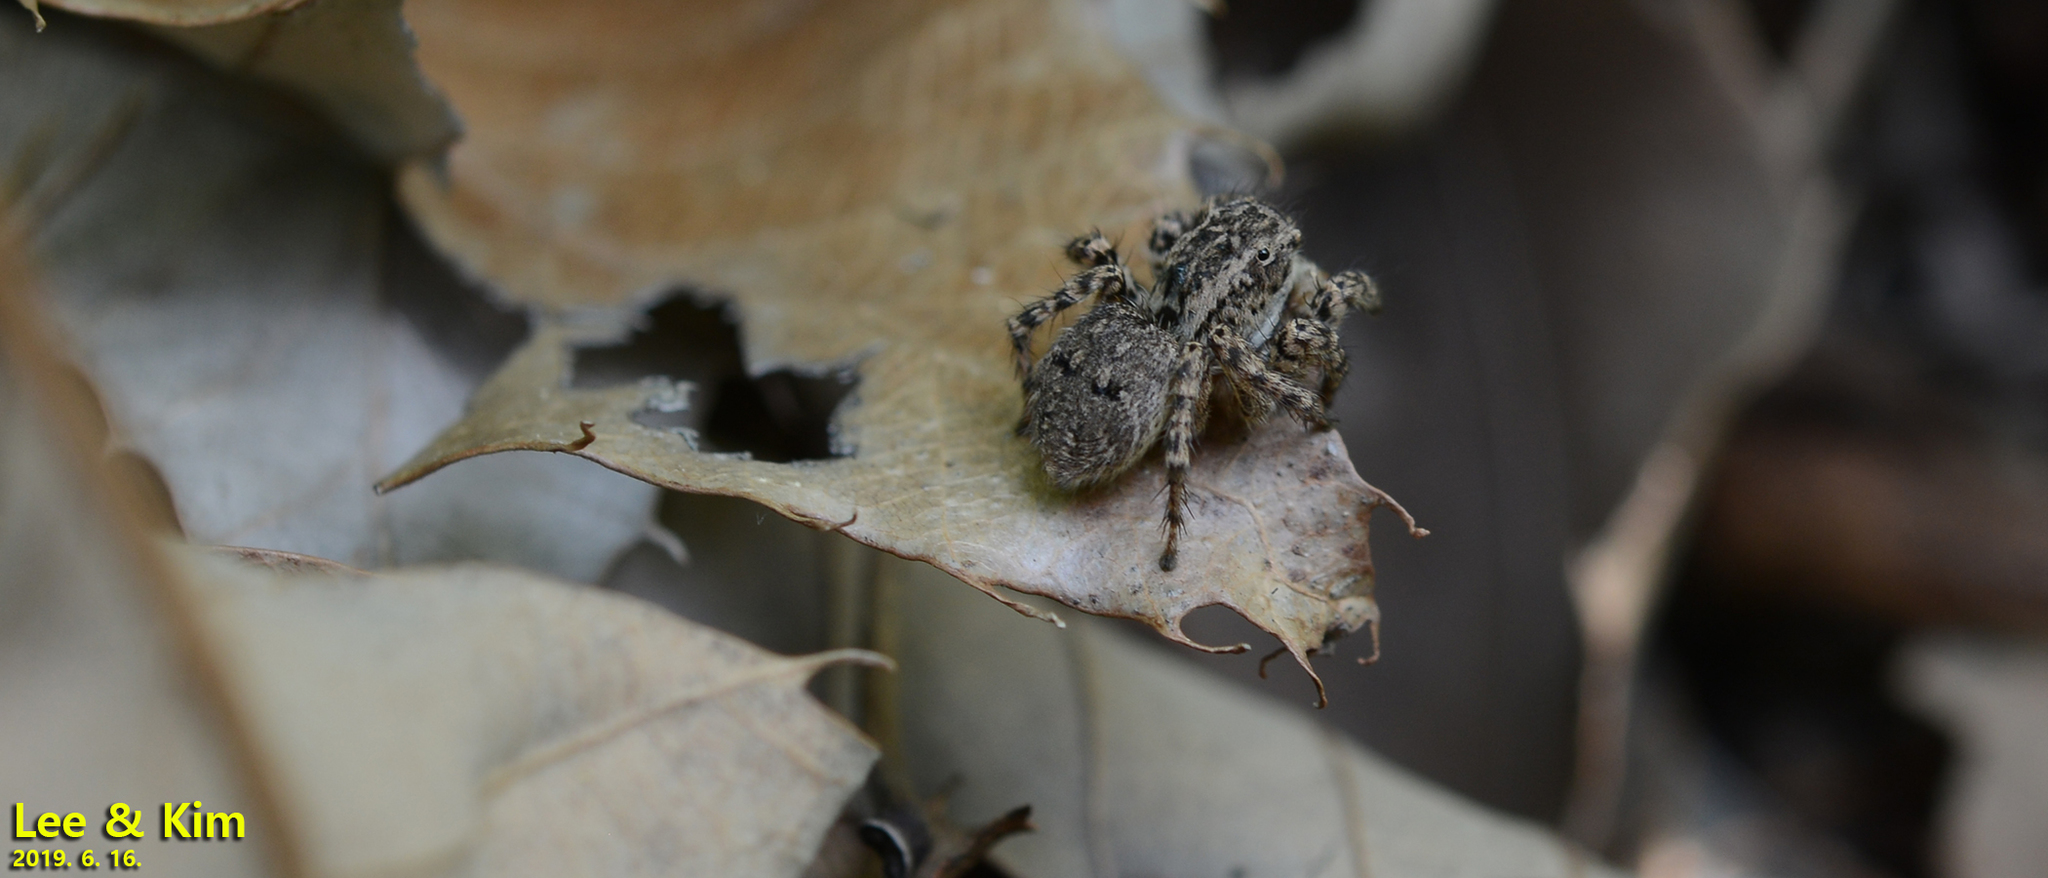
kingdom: Animalia
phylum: Arthropoda
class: Arachnida
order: Araneae
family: Salticidae
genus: Asianellus
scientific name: Asianellus festivus
